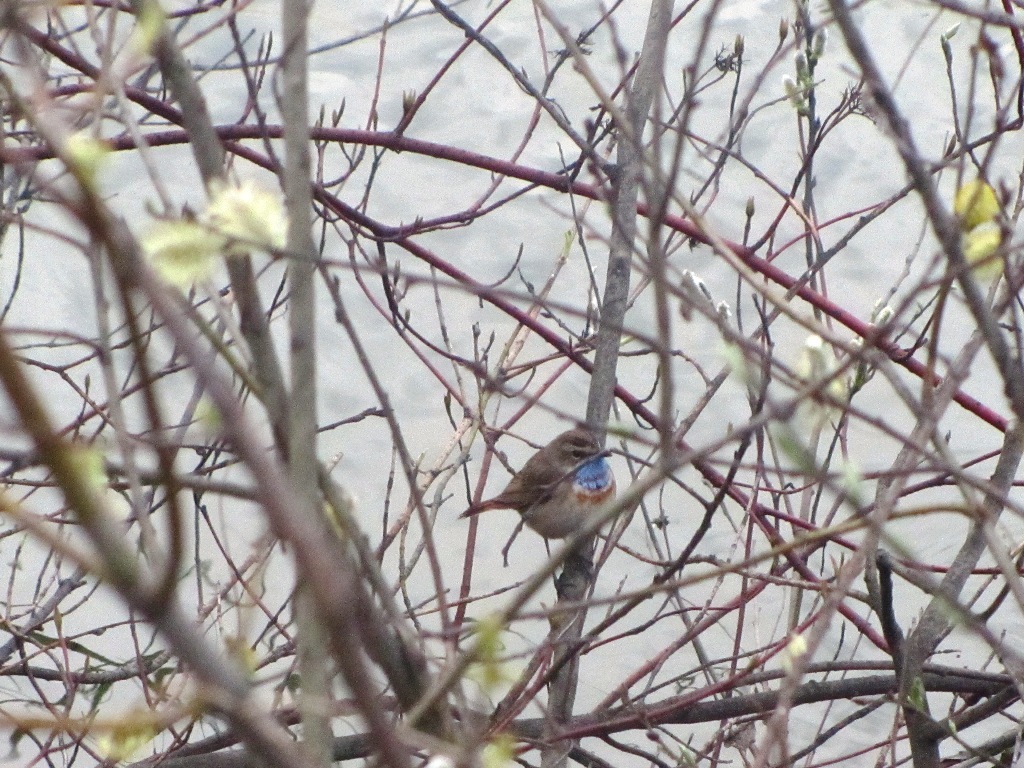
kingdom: Animalia
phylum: Chordata
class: Aves
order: Passeriformes
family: Muscicapidae
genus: Luscinia
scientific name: Luscinia svecica
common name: Bluethroat
